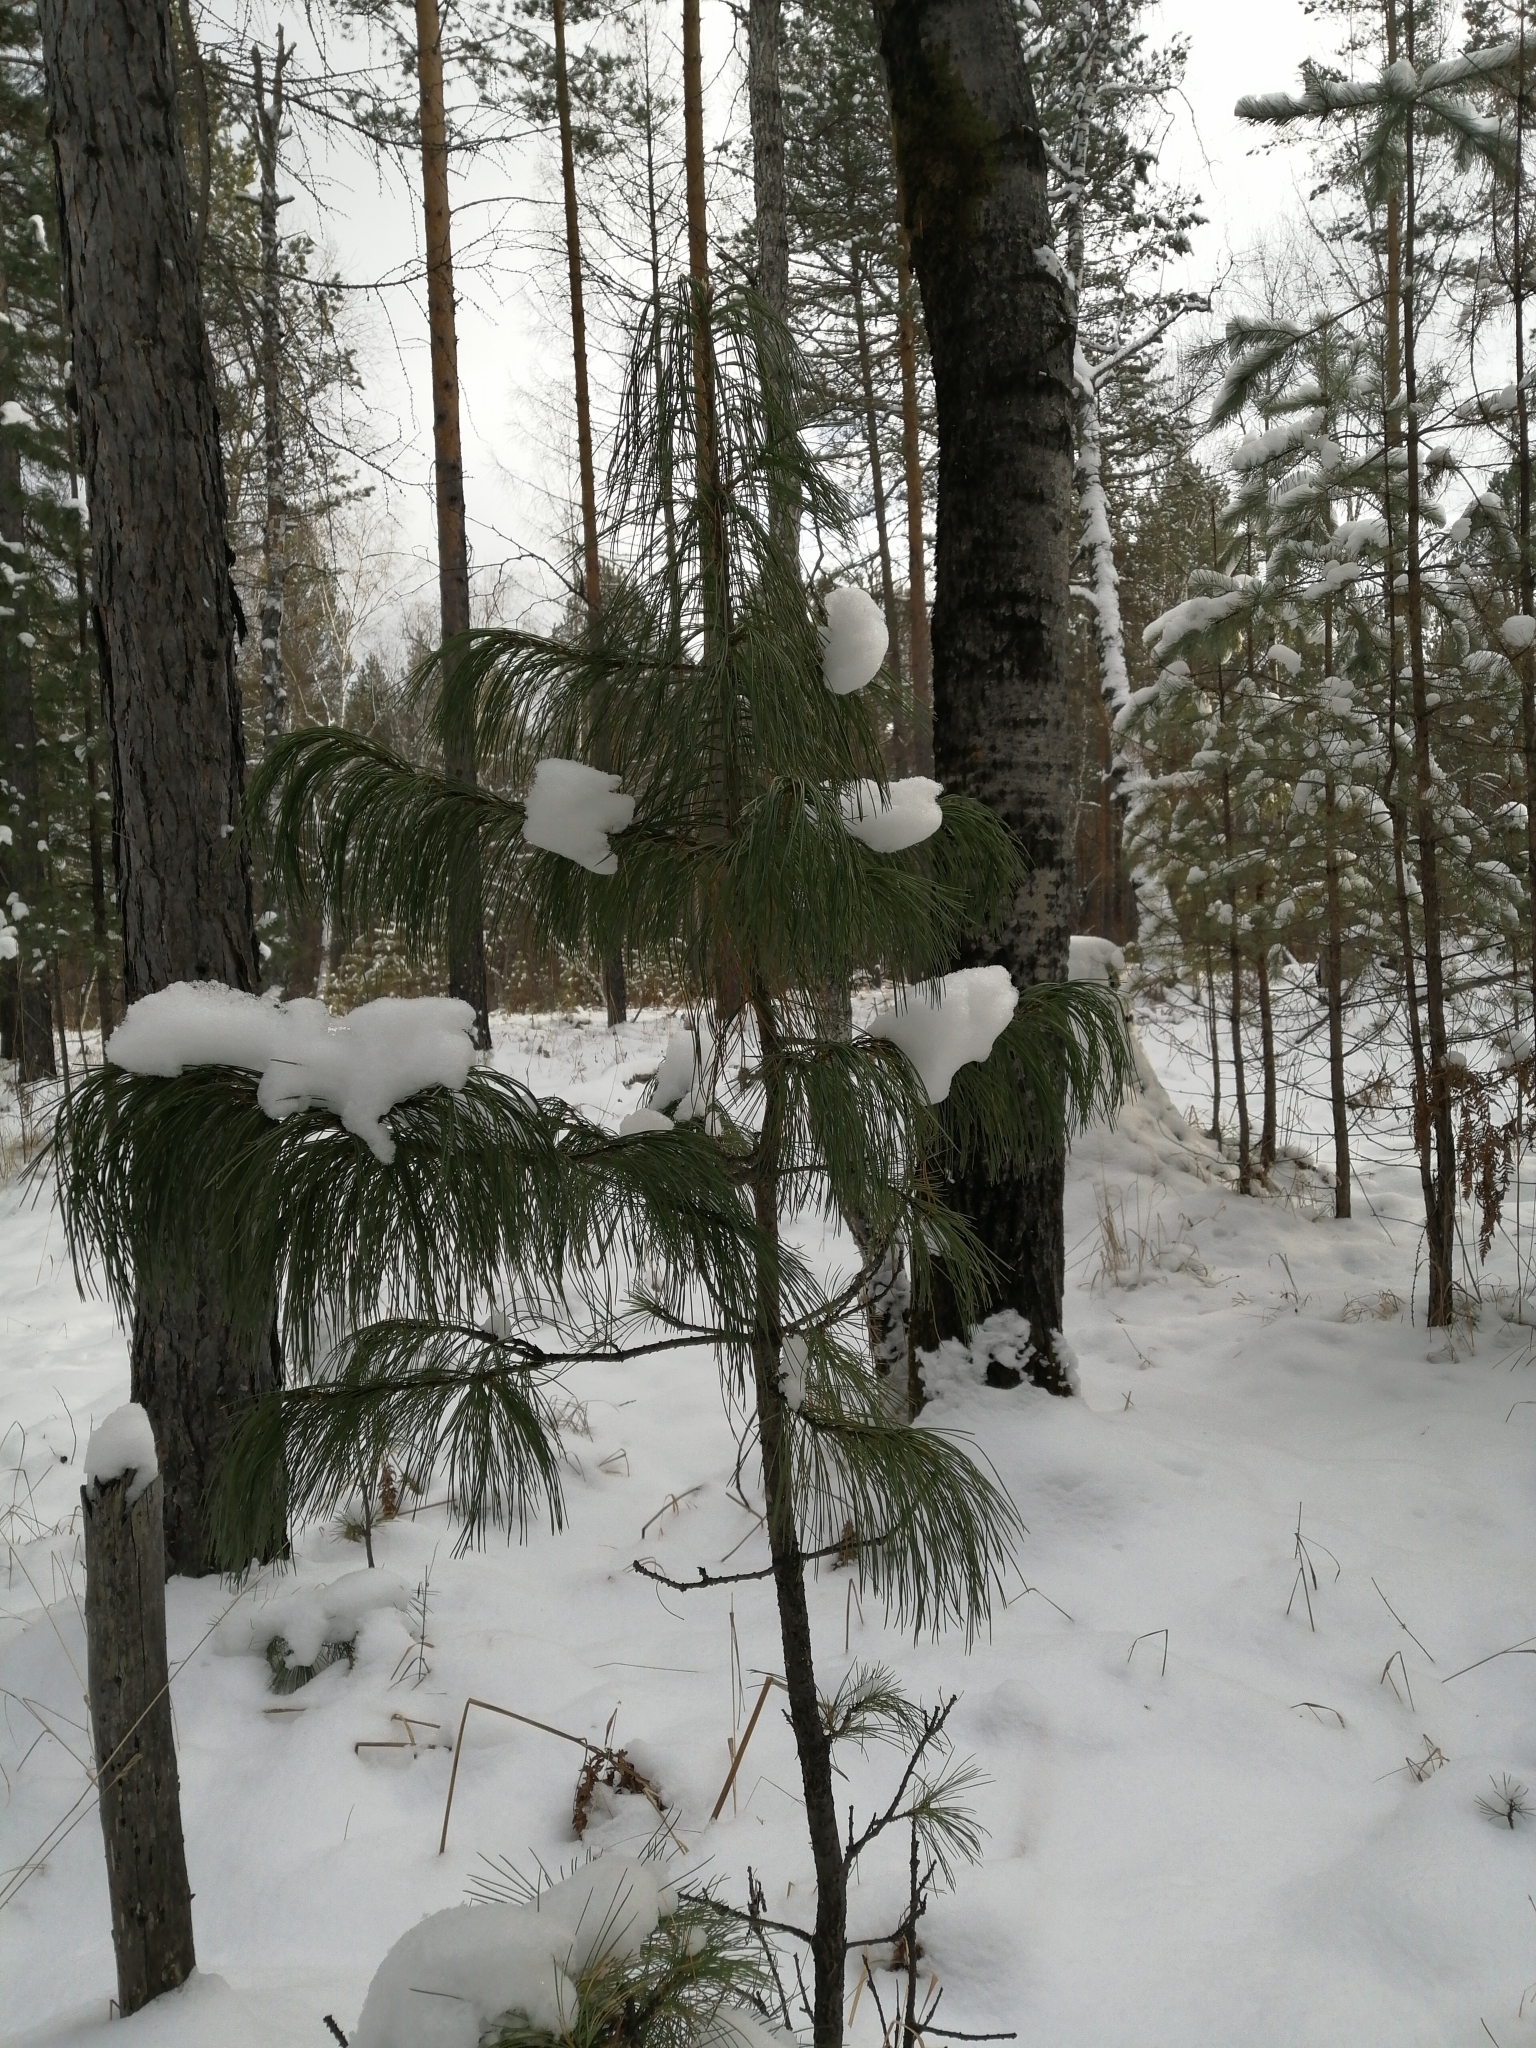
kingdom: Plantae
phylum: Tracheophyta
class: Pinopsida
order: Pinales
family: Pinaceae
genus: Pinus
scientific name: Pinus sibirica
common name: Siberian pine
